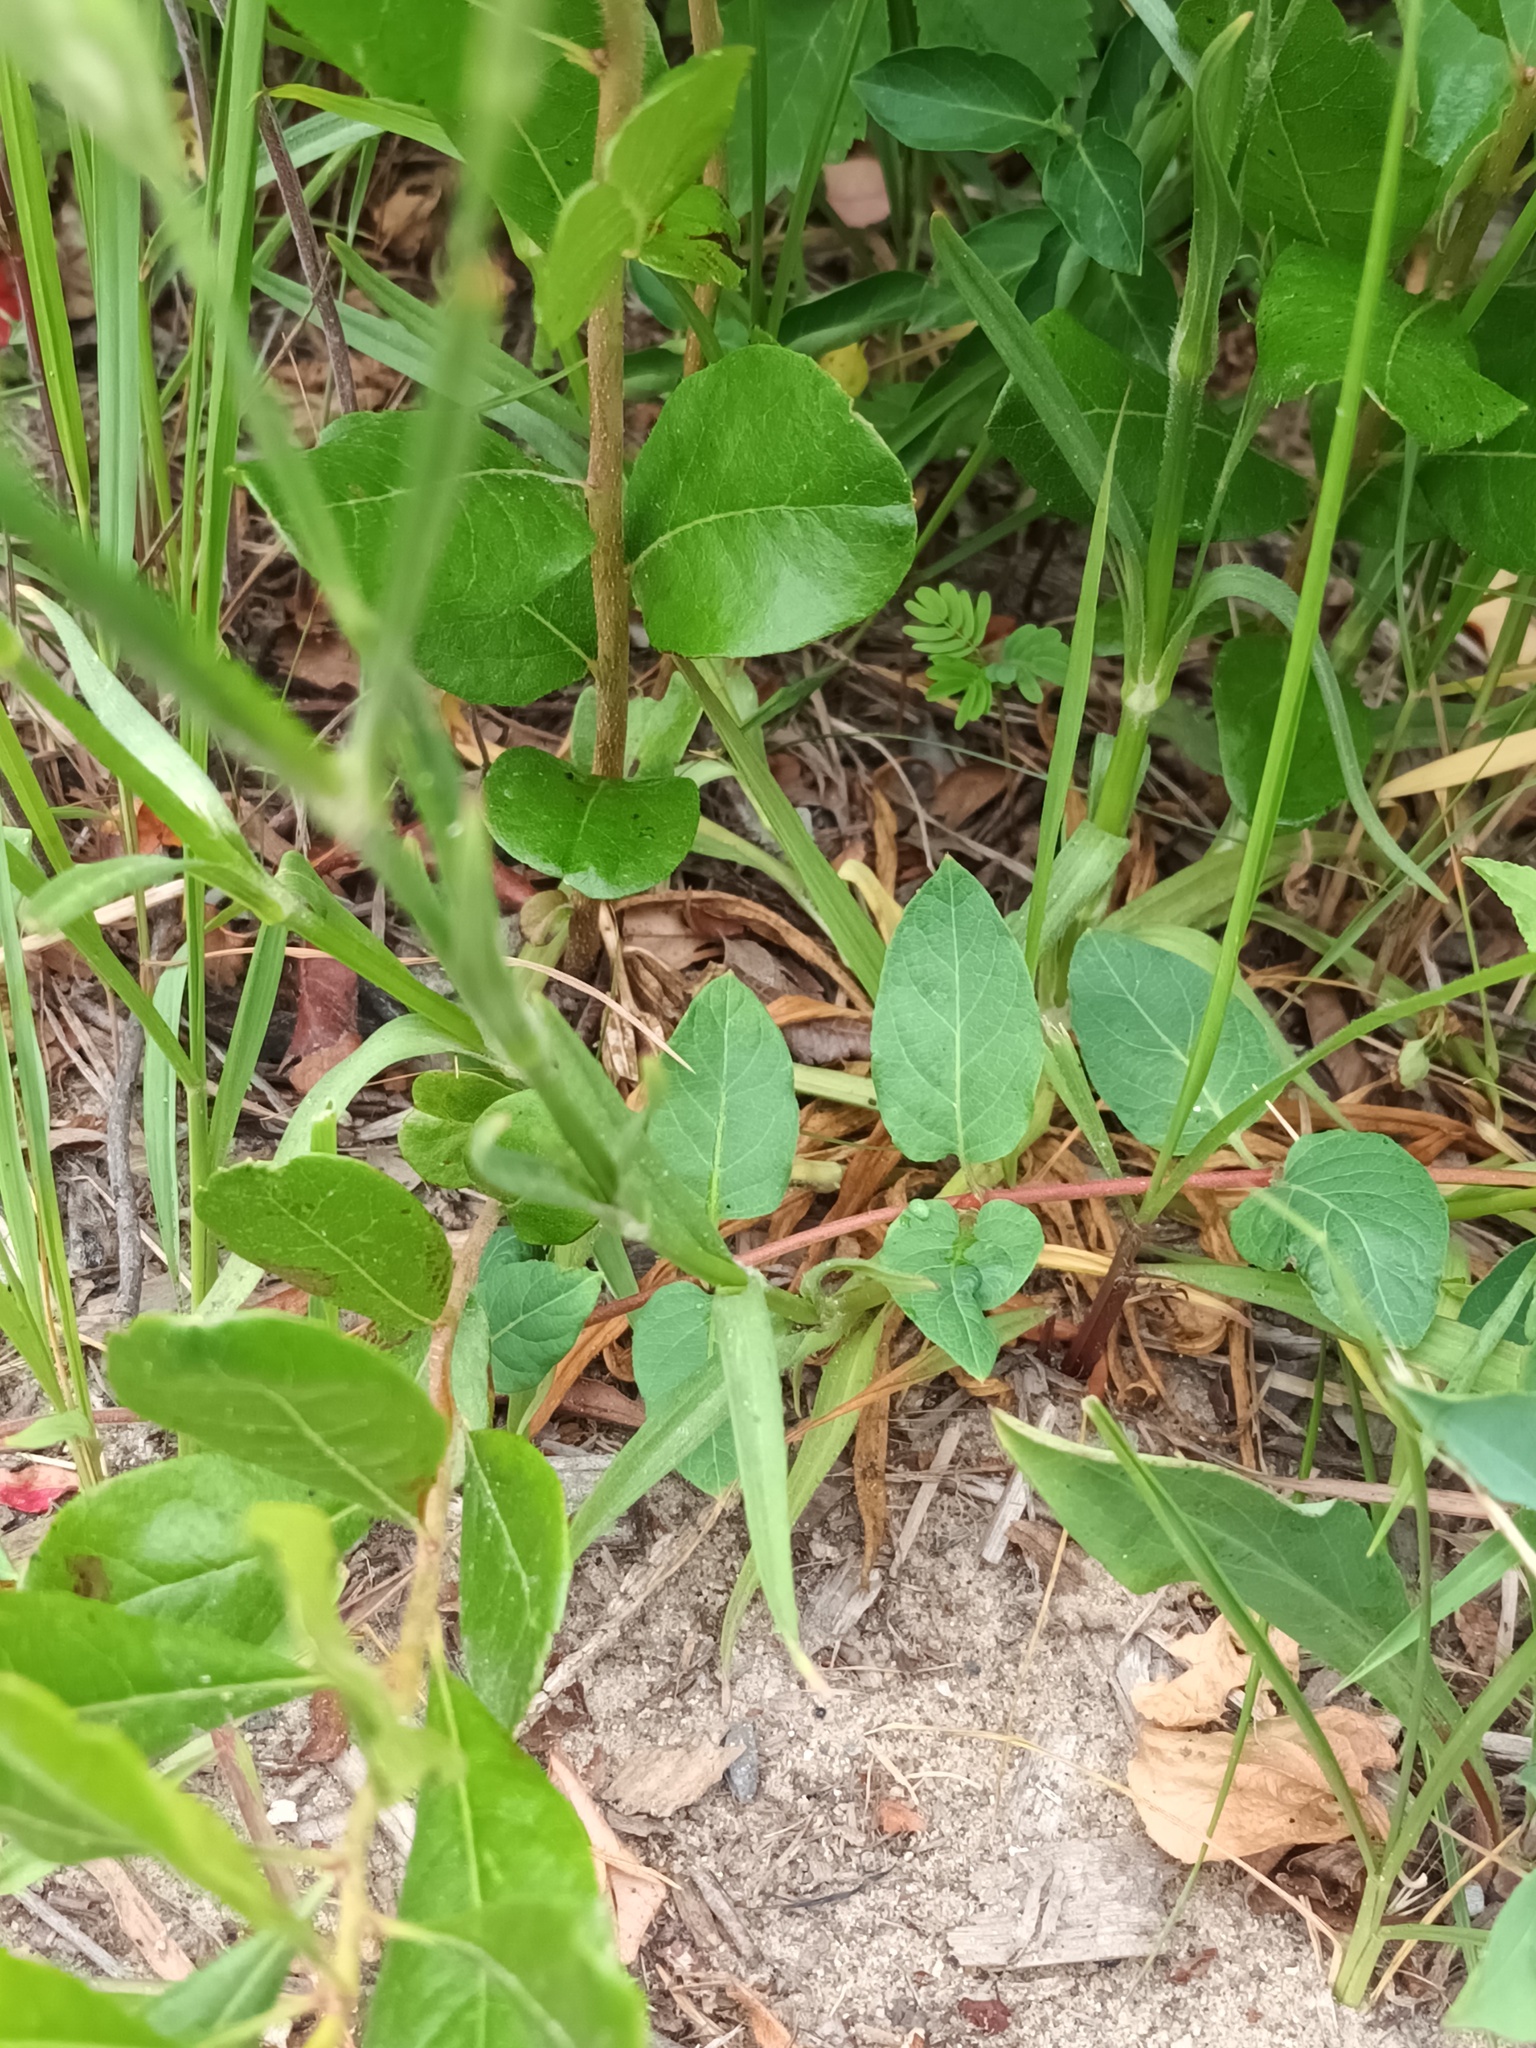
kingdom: Plantae
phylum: Tracheophyta
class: Magnoliopsida
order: Caryophyllales
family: Caryophyllaceae
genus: Dianthus
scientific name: Dianthus armeria
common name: Deptford pink
